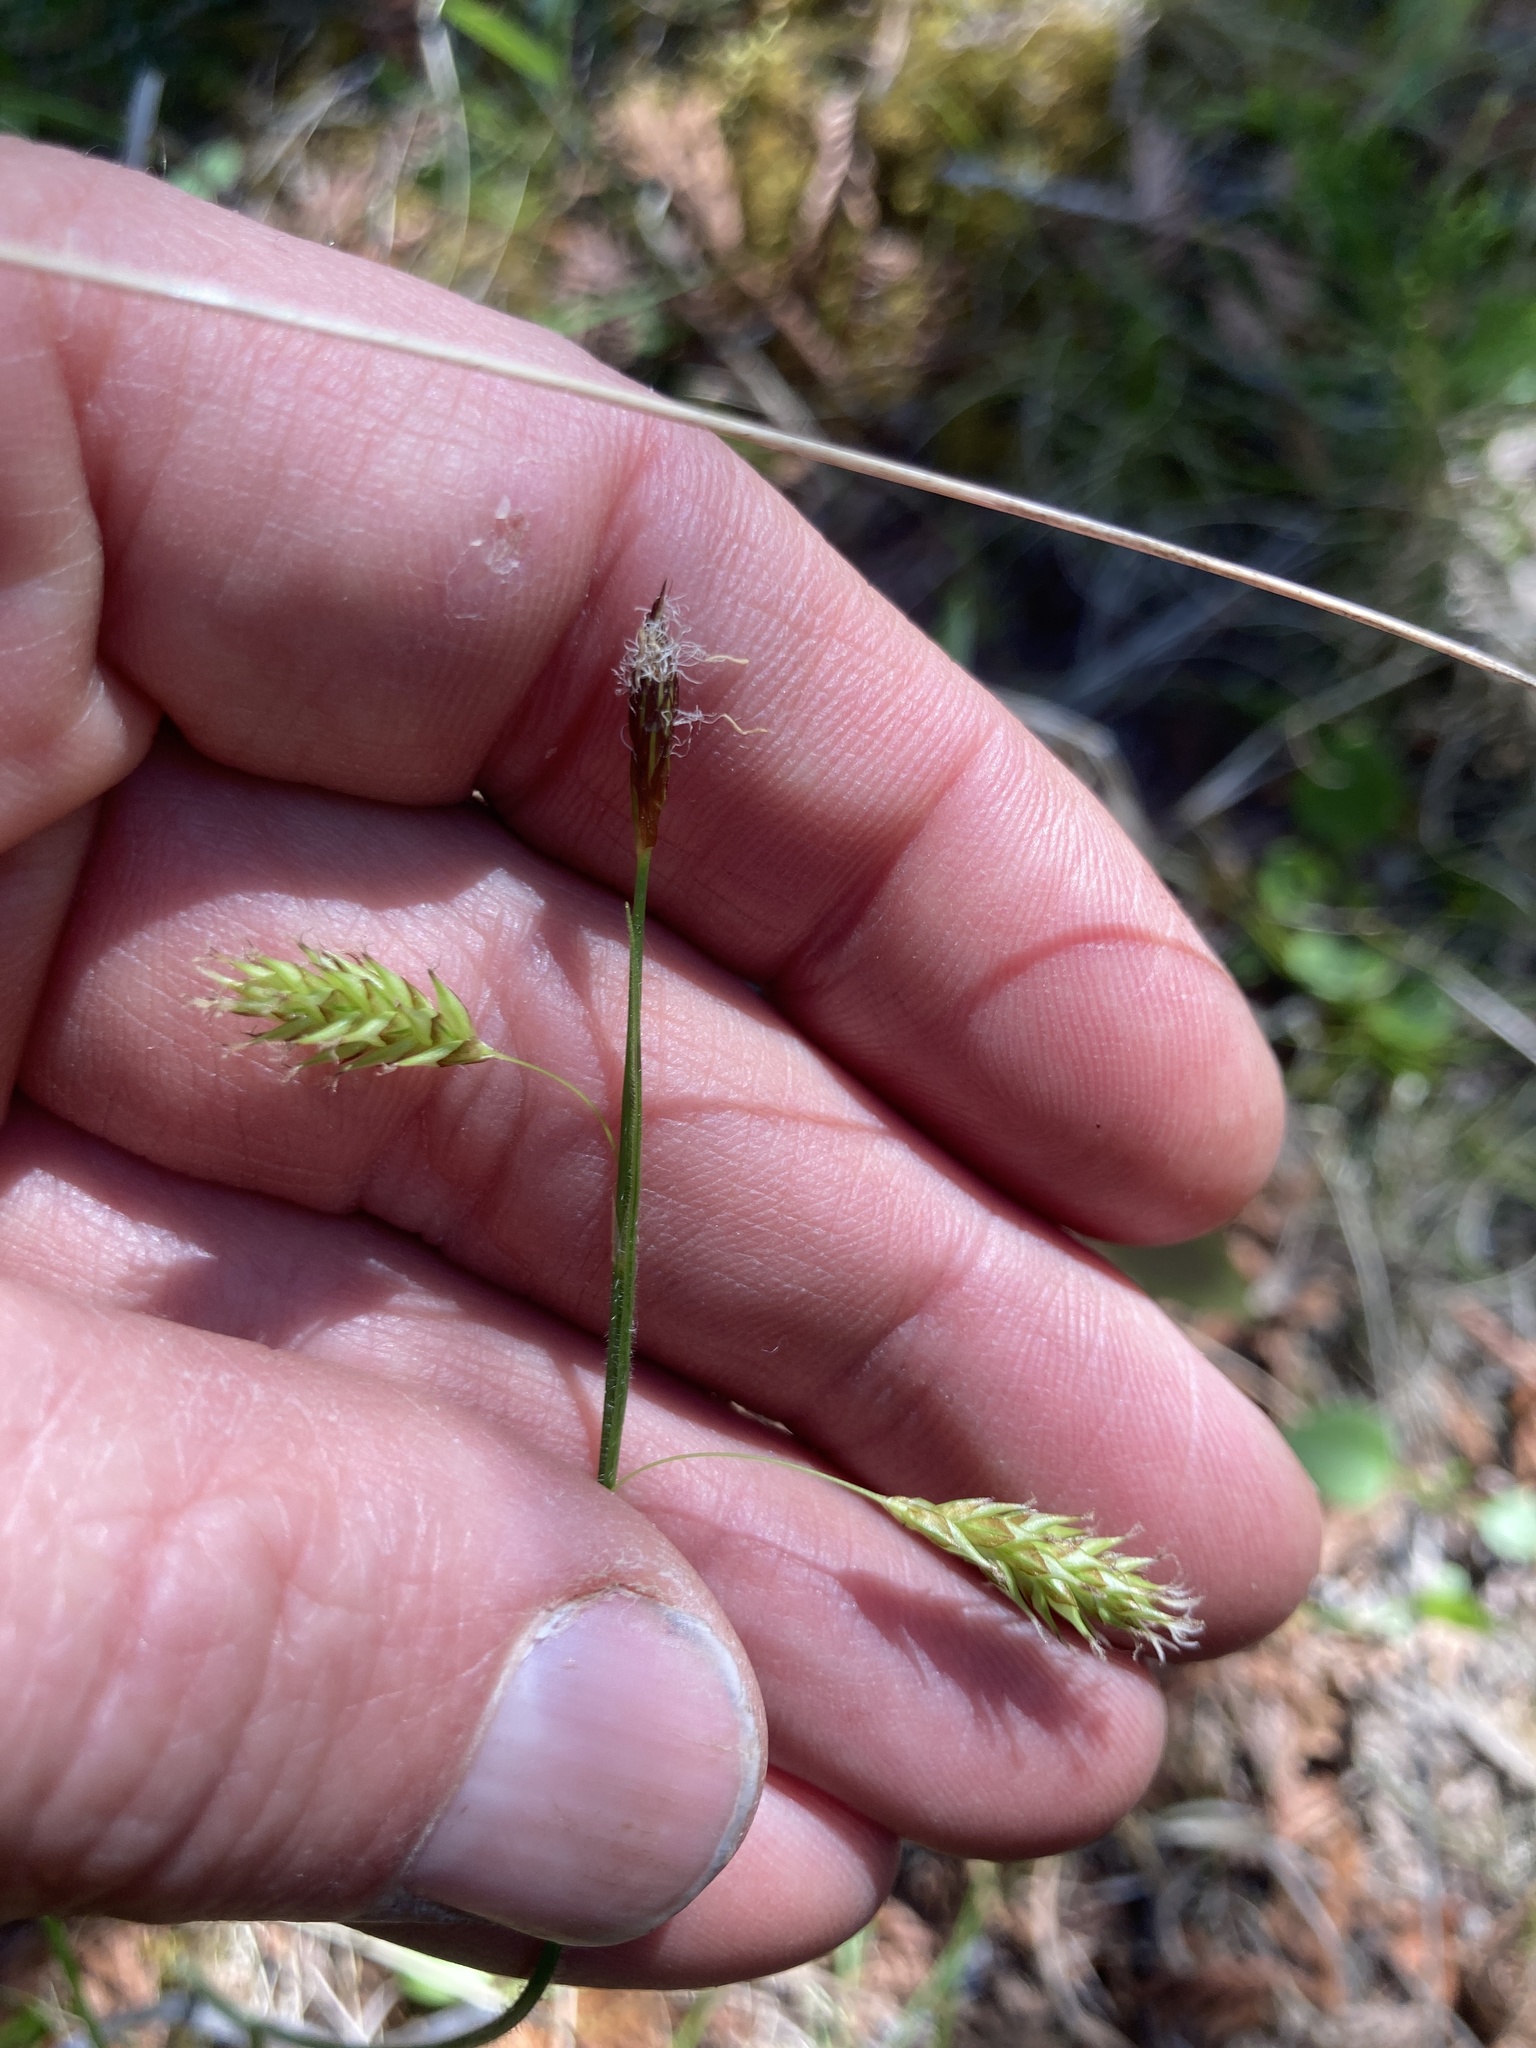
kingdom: Plantae
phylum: Tracheophyta
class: Liliopsida
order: Poales
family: Cyperaceae
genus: Carex
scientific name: Carex castanea
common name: Chestnut sedge
